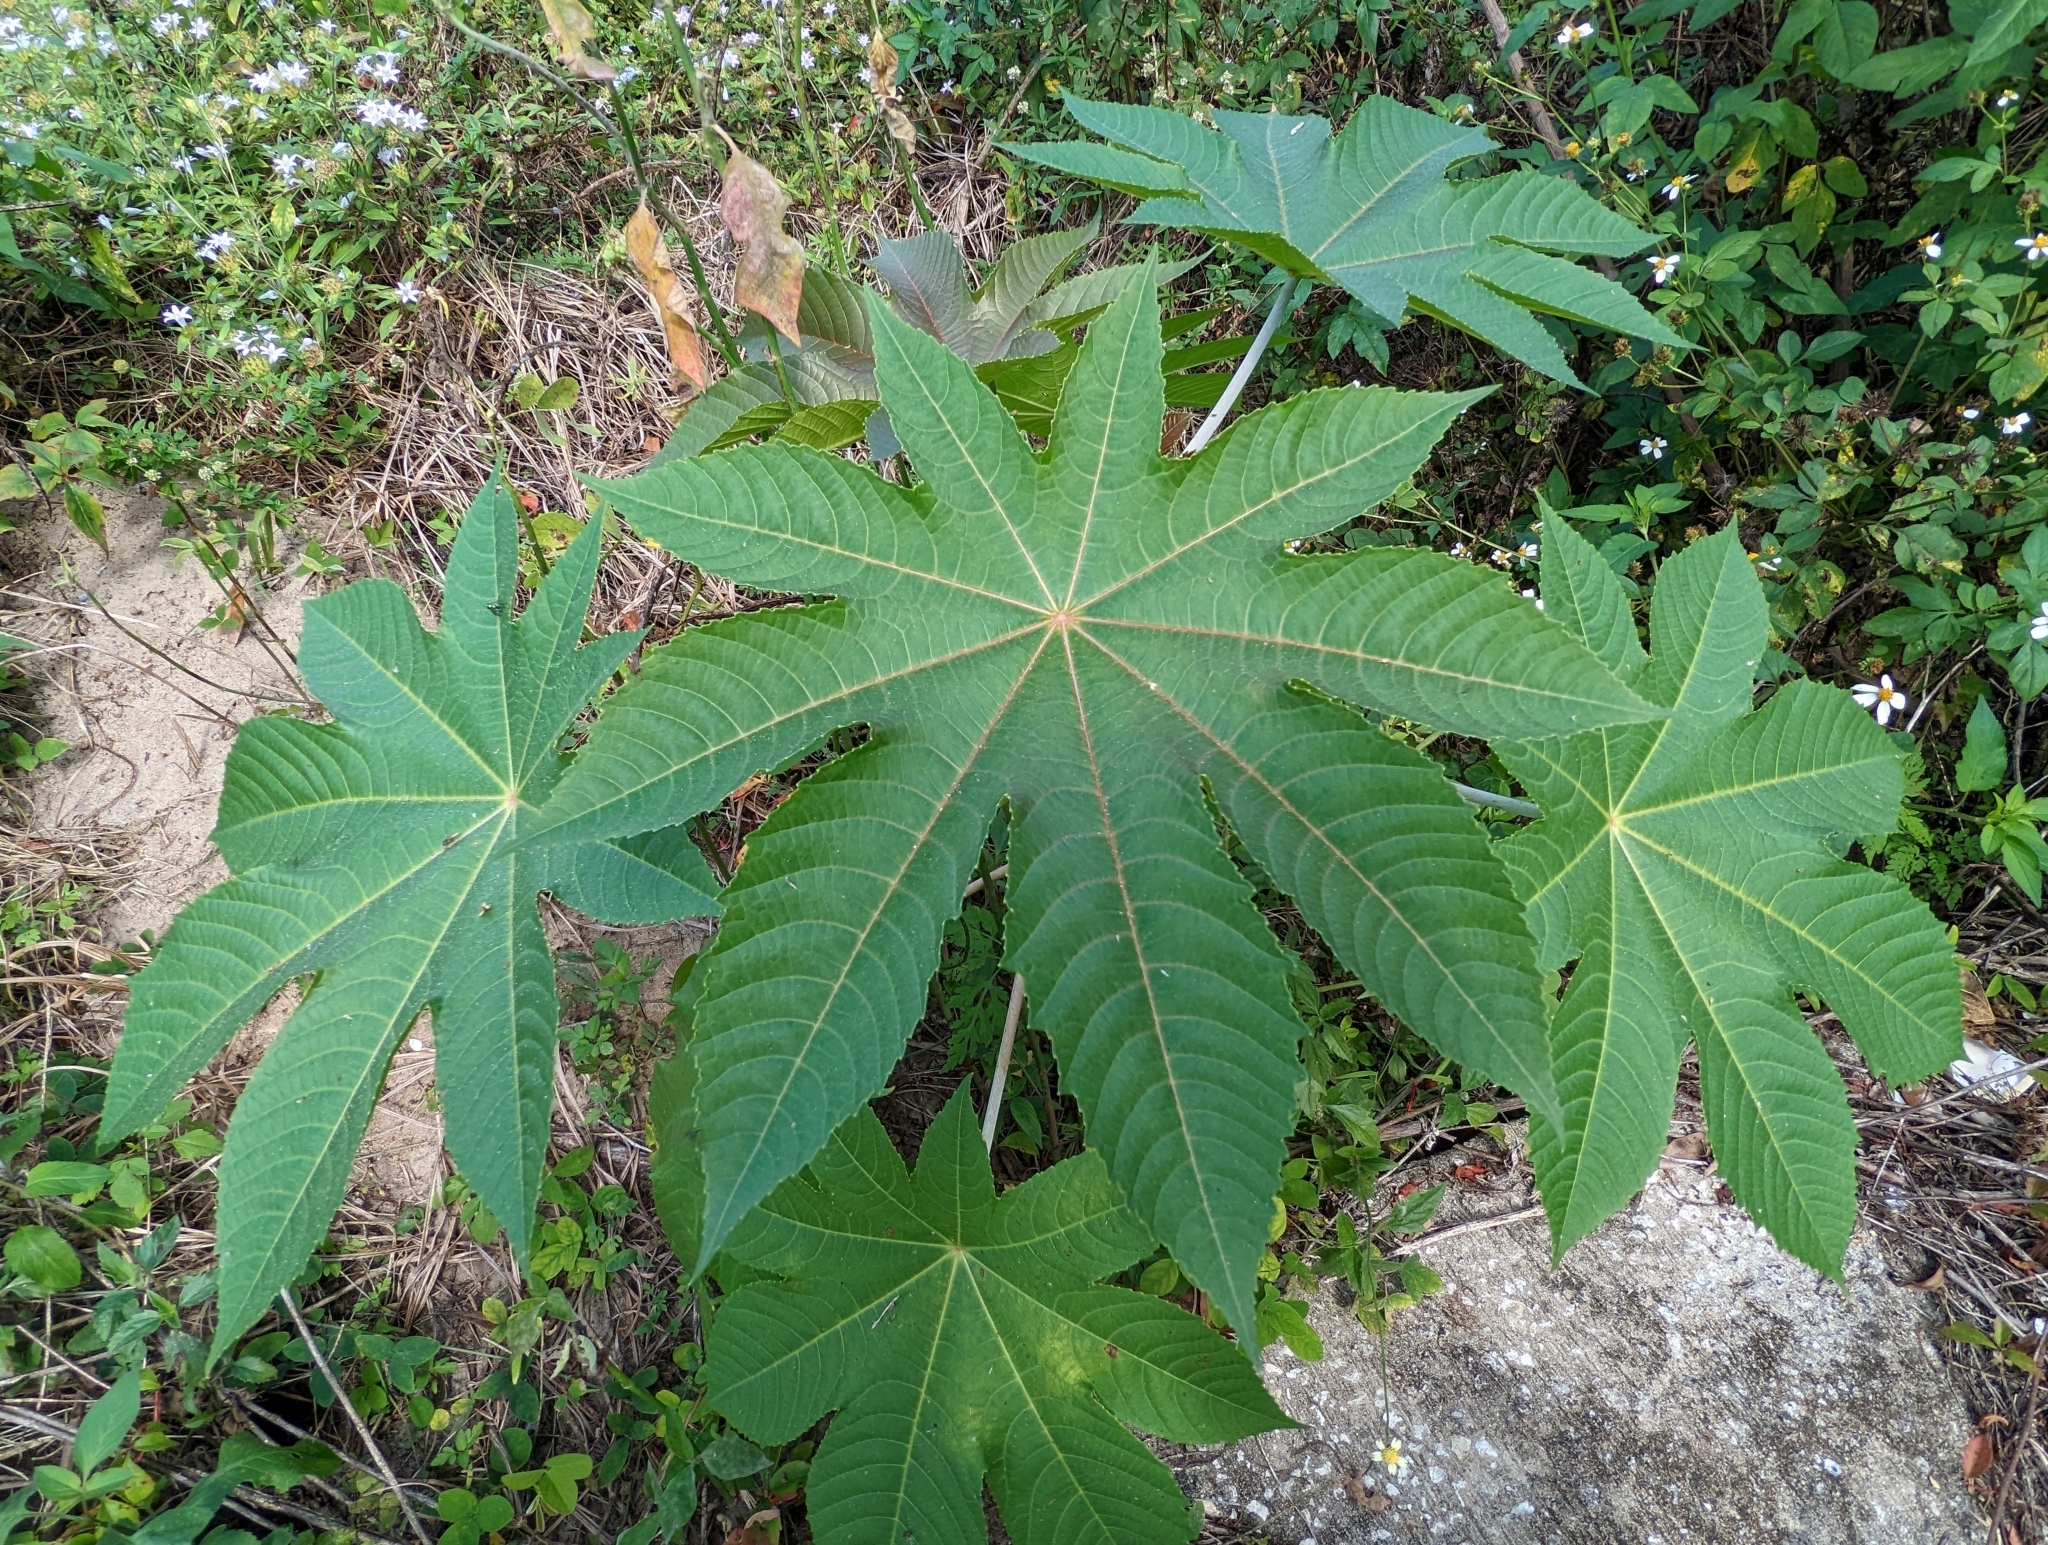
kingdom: Plantae
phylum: Tracheophyta
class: Magnoliopsida
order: Malpighiales
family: Euphorbiaceae
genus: Ricinus
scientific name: Ricinus communis
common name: Castor-oil-plant
